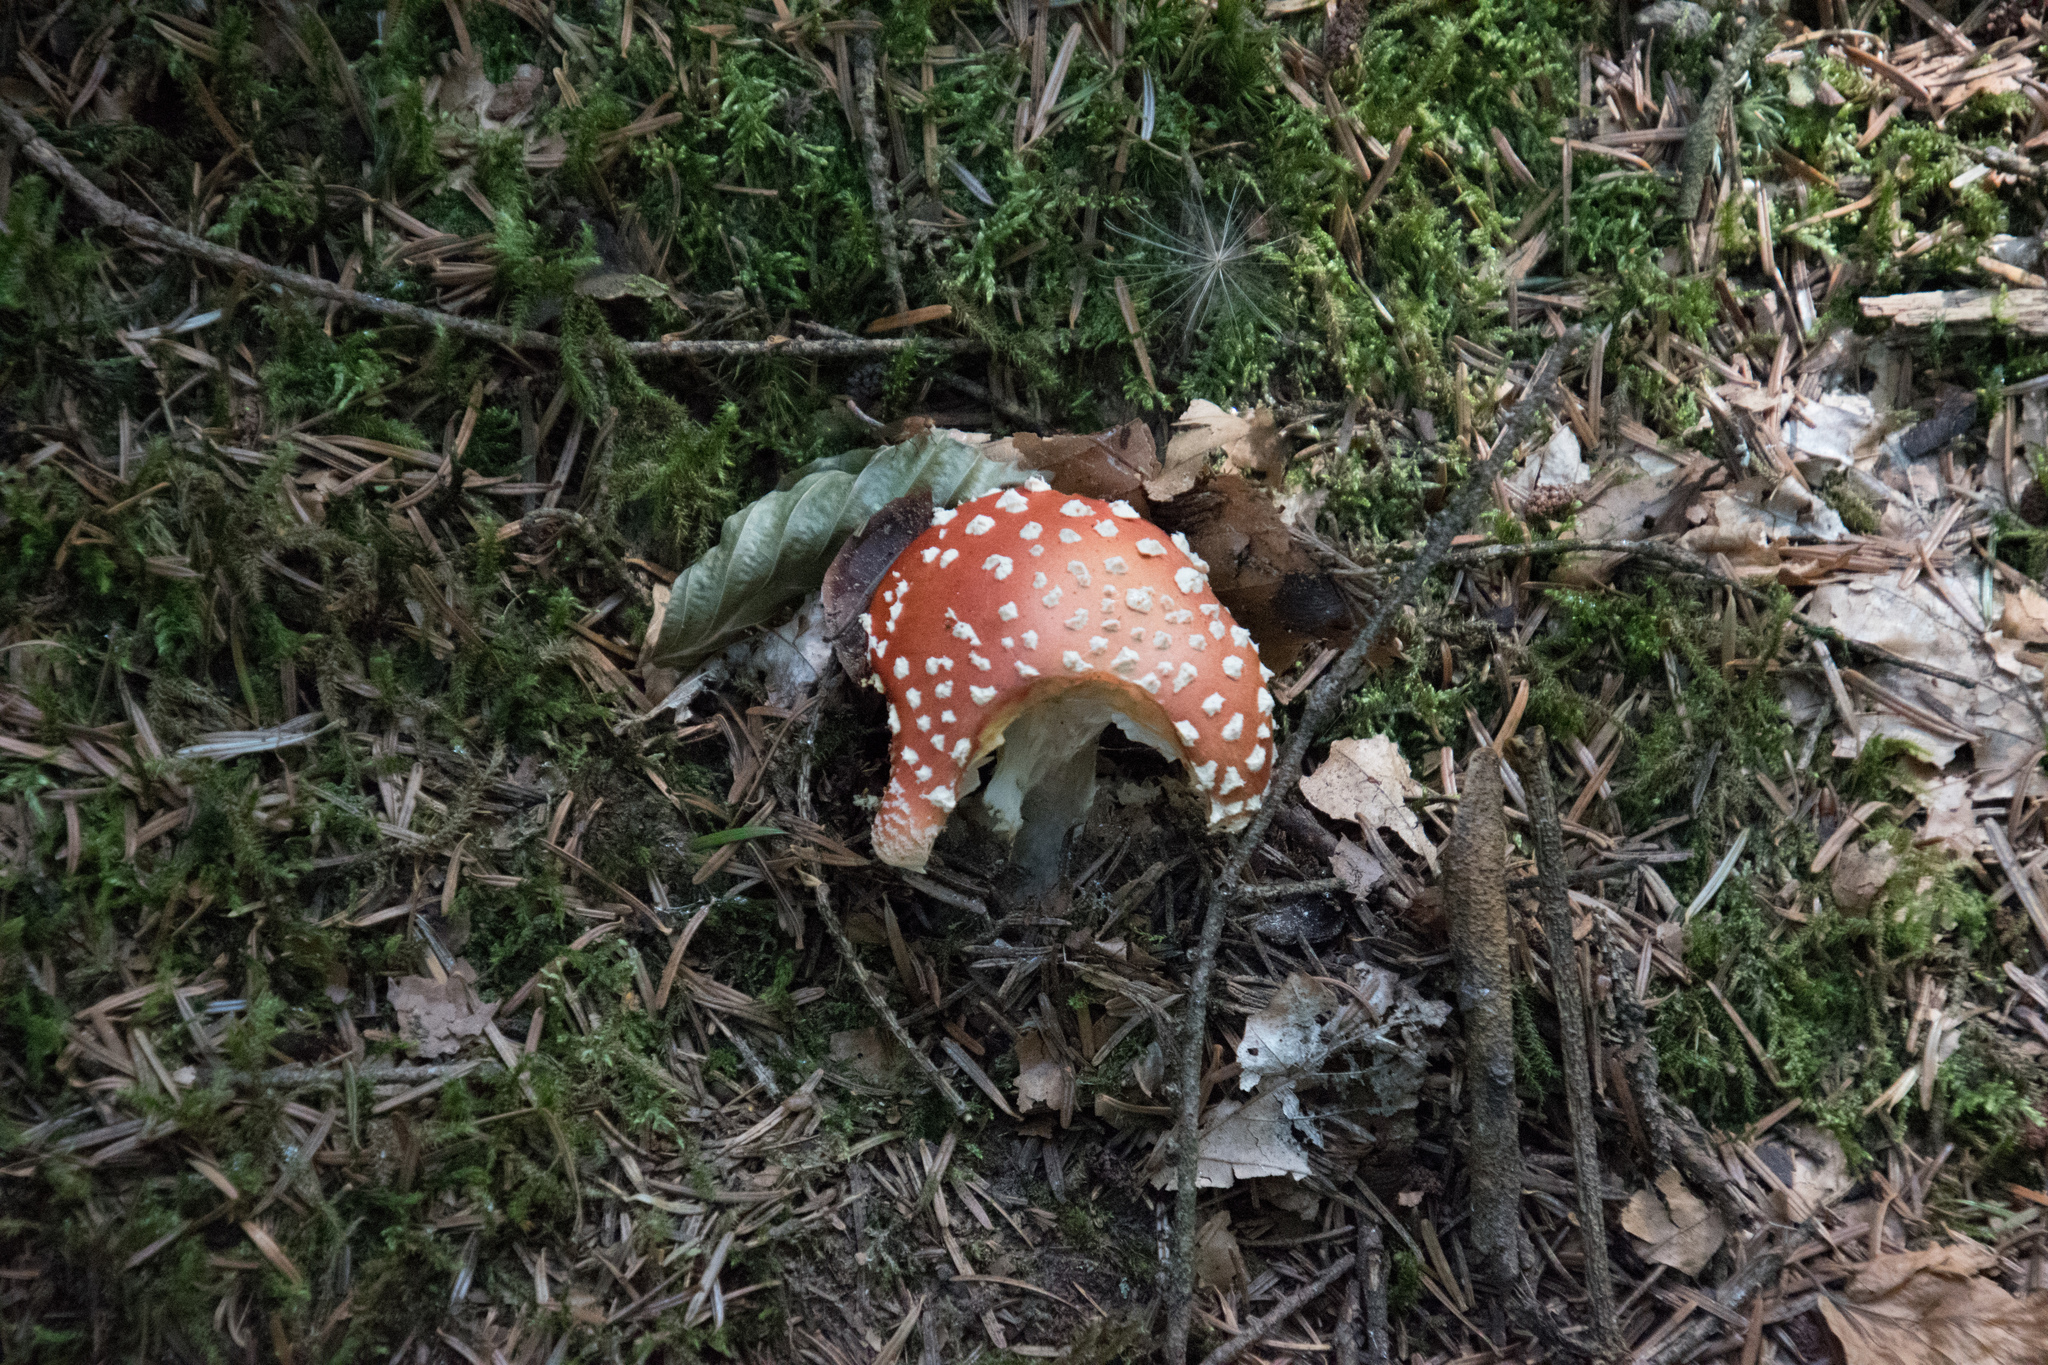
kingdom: Fungi
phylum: Basidiomycota
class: Agaricomycetes
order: Agaricales
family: Amanitaceae
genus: Amanita
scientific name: Amanita muscaria
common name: Fly agaric
